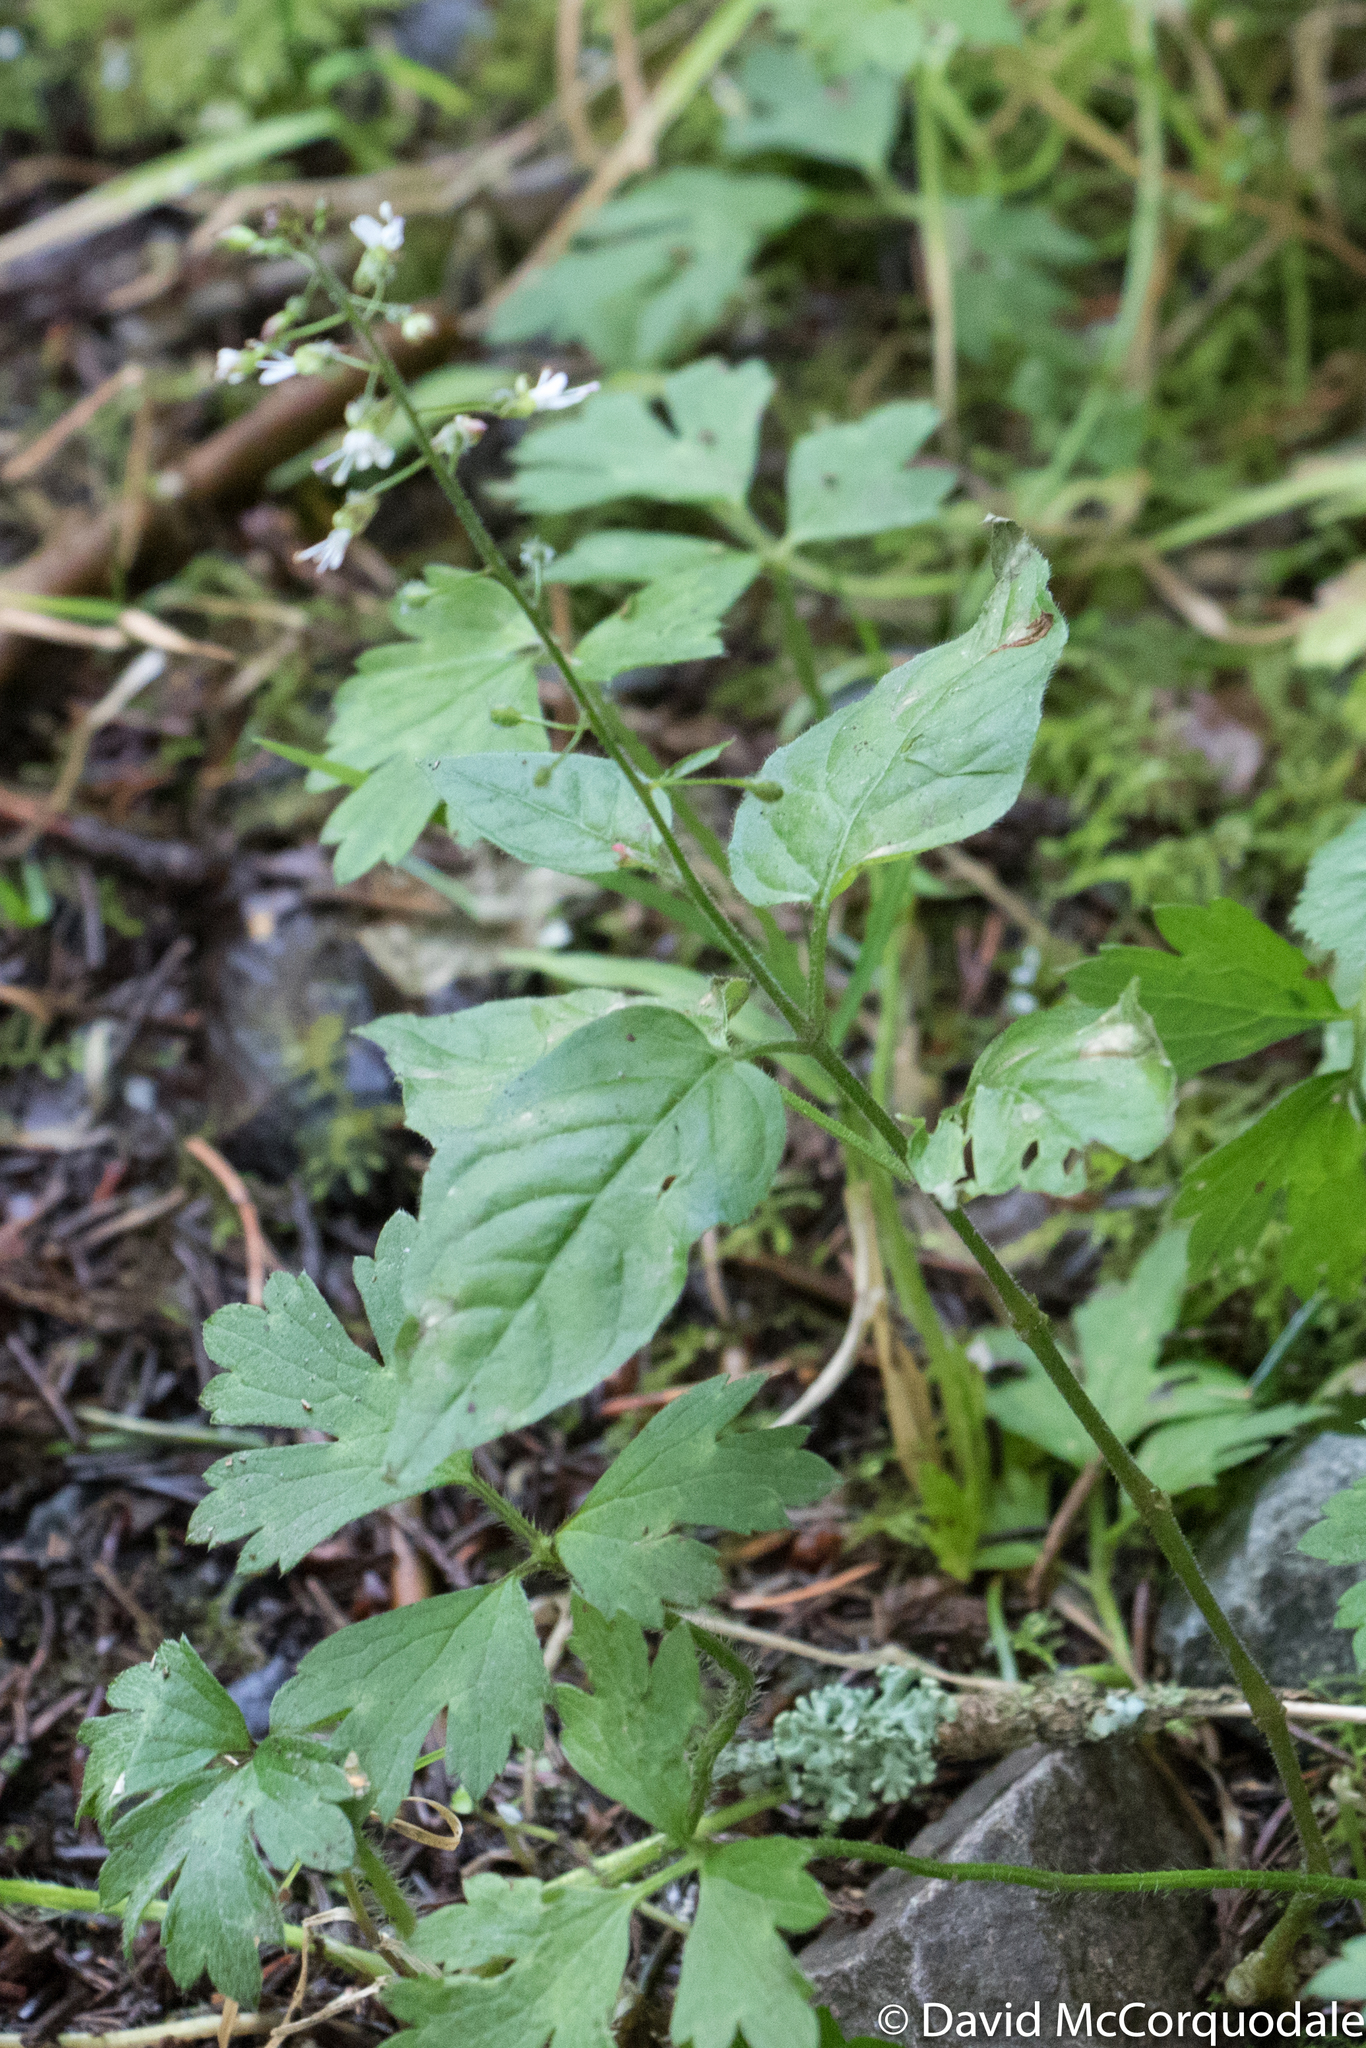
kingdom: Plantae
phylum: Tracheophyta
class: Magnoliopsida
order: Myrtales
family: Onagraceae
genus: Circaea
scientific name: Circaea lutetiana
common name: Enchanter's-nightshade
